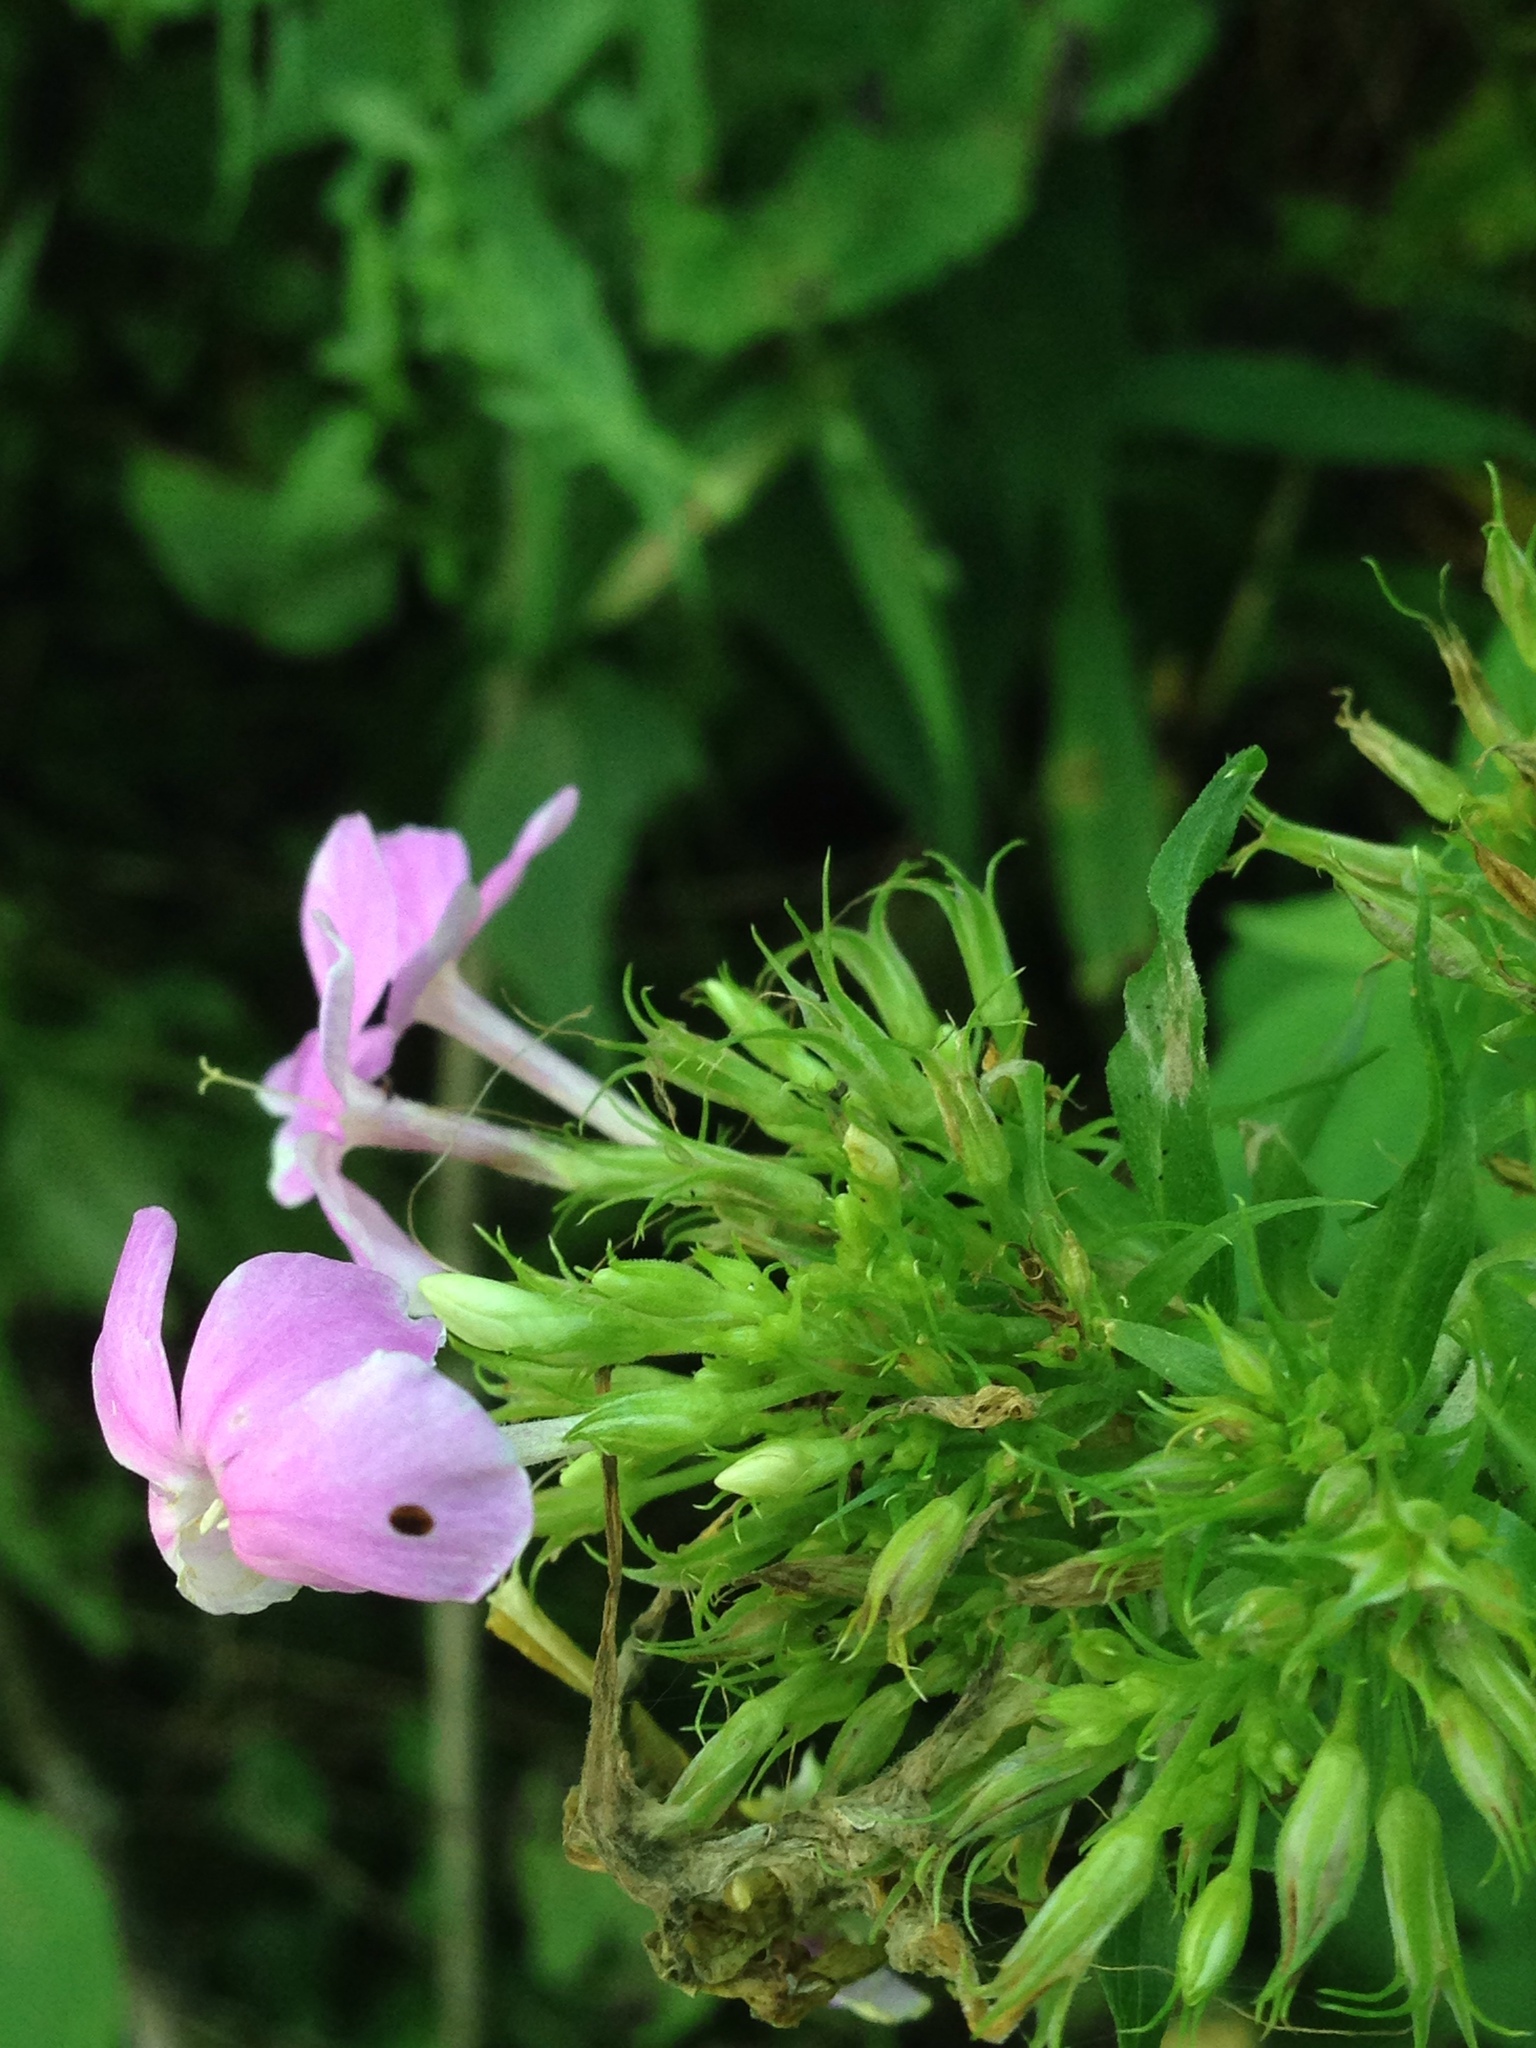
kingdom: Plantae
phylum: Tracheophyta
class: Magnoliopsida
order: Ericales
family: Polemoniaceae
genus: Phlox
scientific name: Phlox paniculata
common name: Fall phlox
